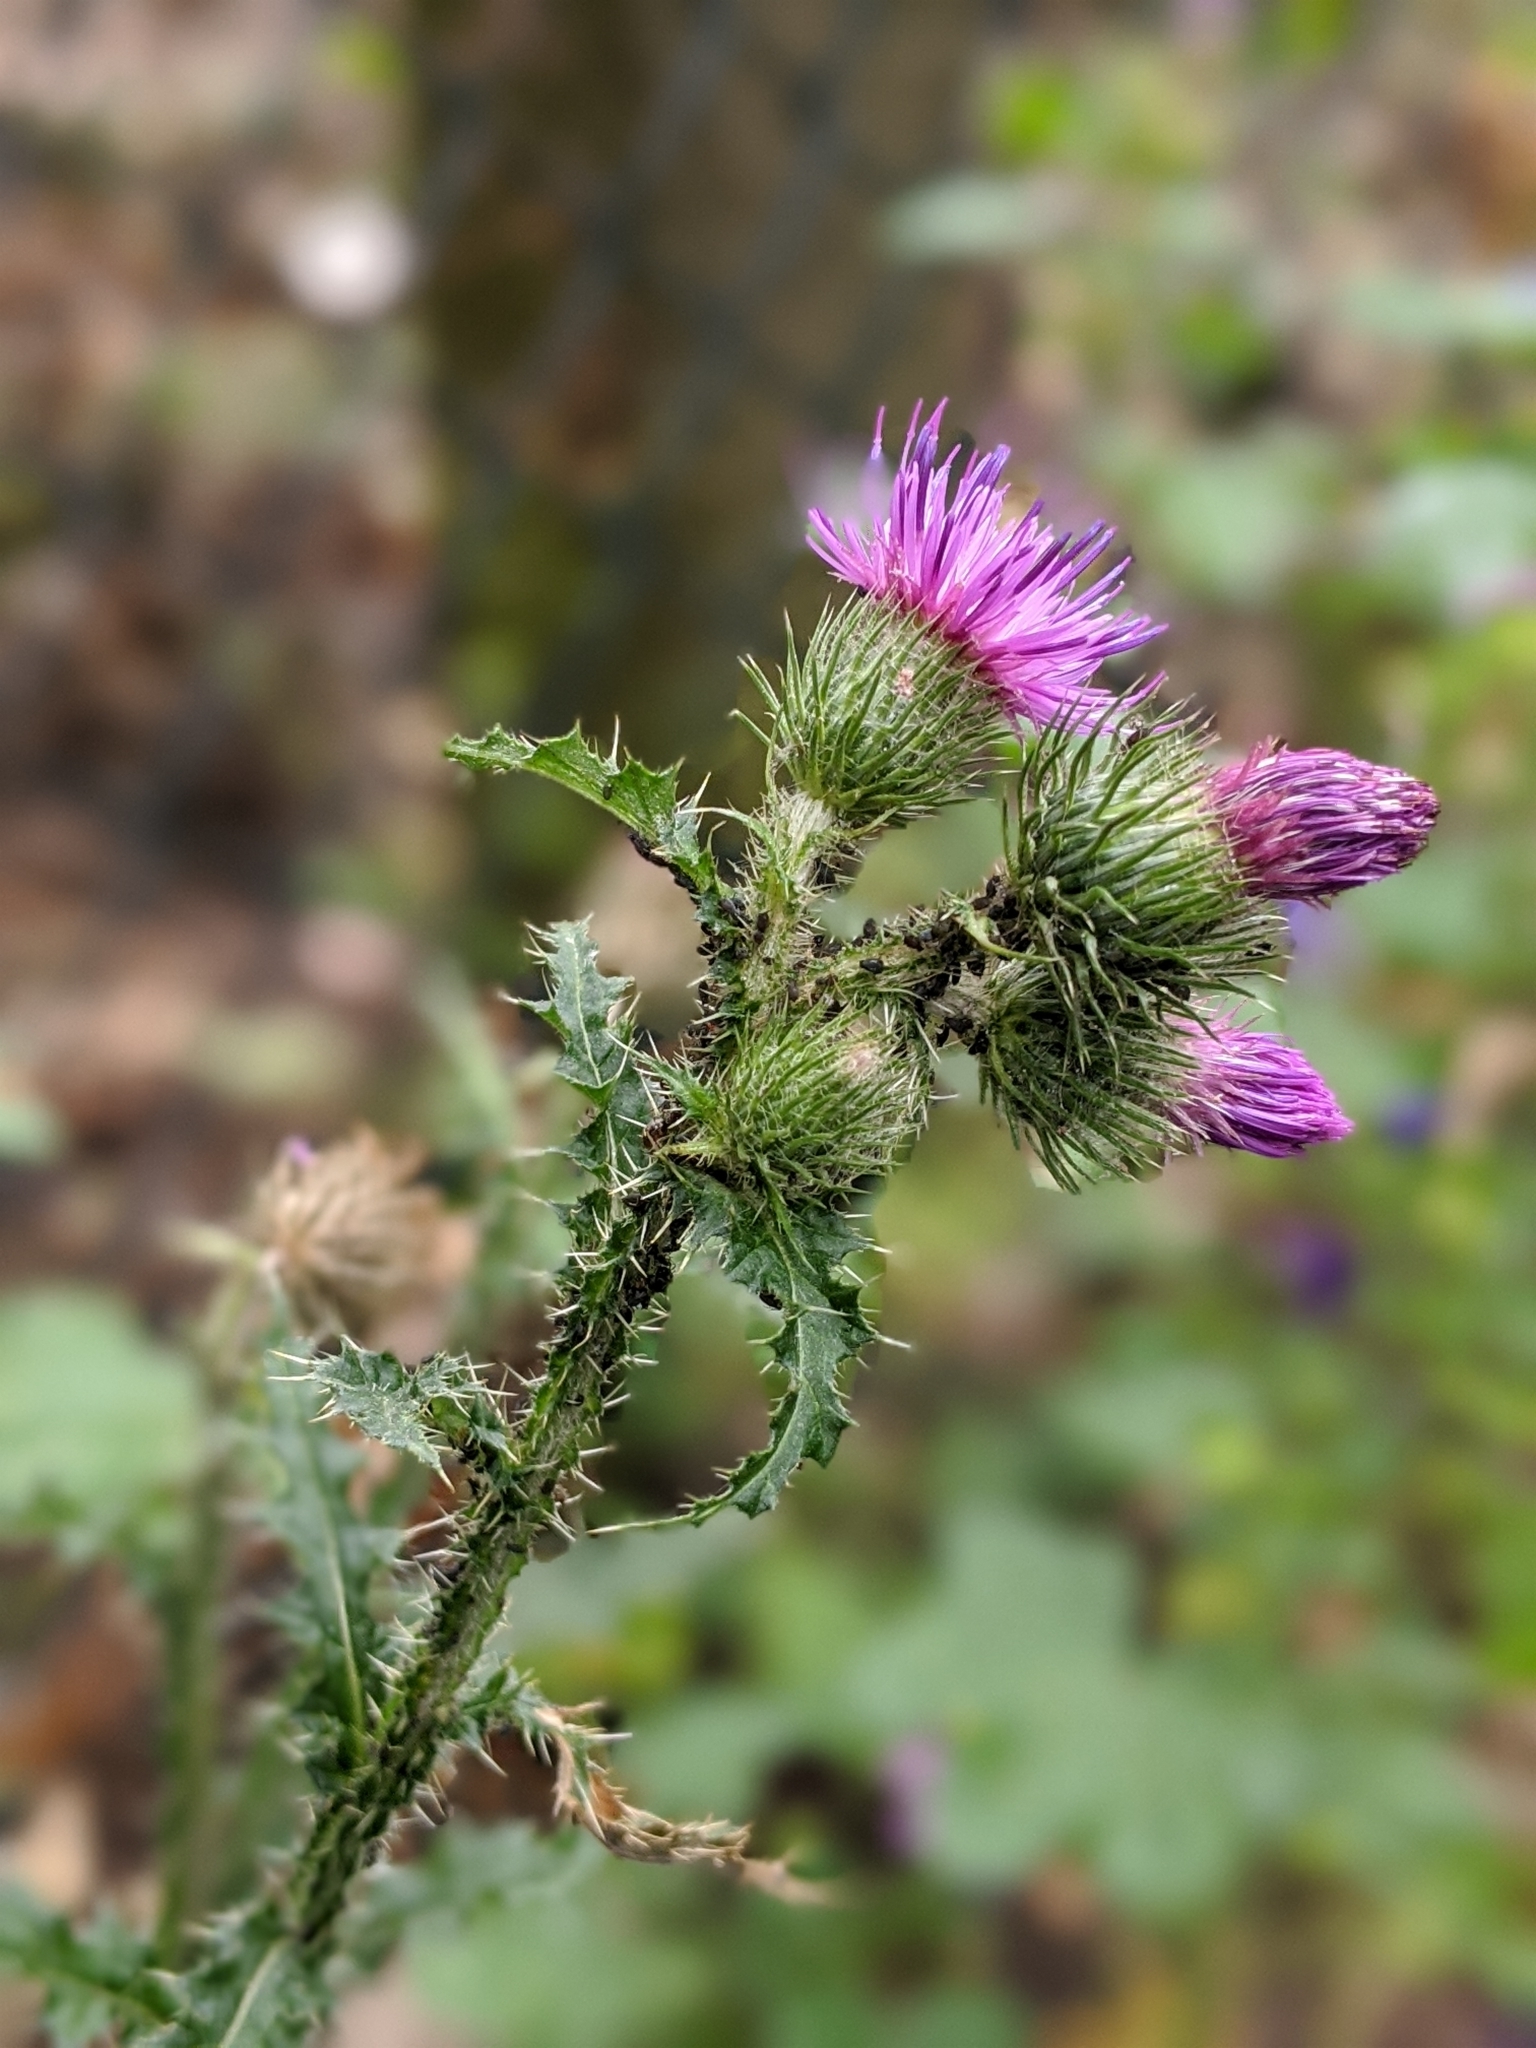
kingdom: Plantae
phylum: Tracheophyta
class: Magnoliopsida
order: Asterales
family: Asteraceae
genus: Carduus
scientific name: Carduus crispus
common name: Welted thistle
